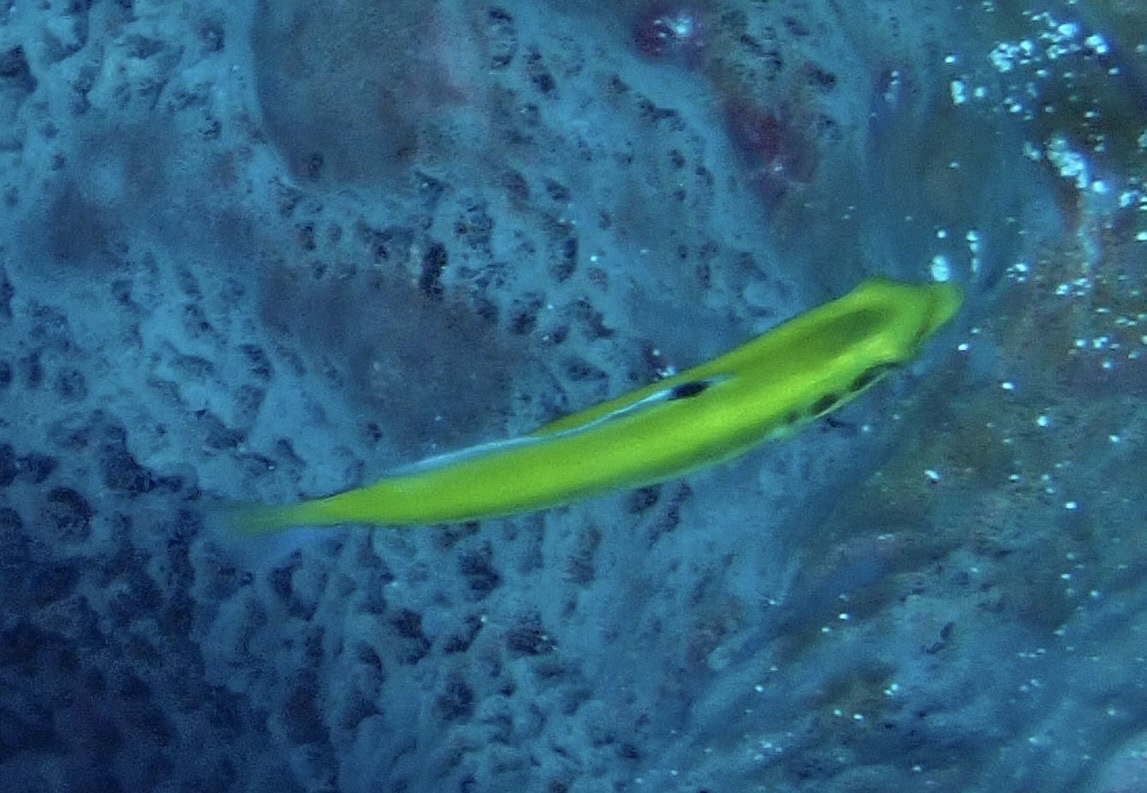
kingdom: Animalia
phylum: Chordata
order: Perciformes
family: Labridae
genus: Thalassoma
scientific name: Thalassoma bifasciatum
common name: Bluehead wrasse
